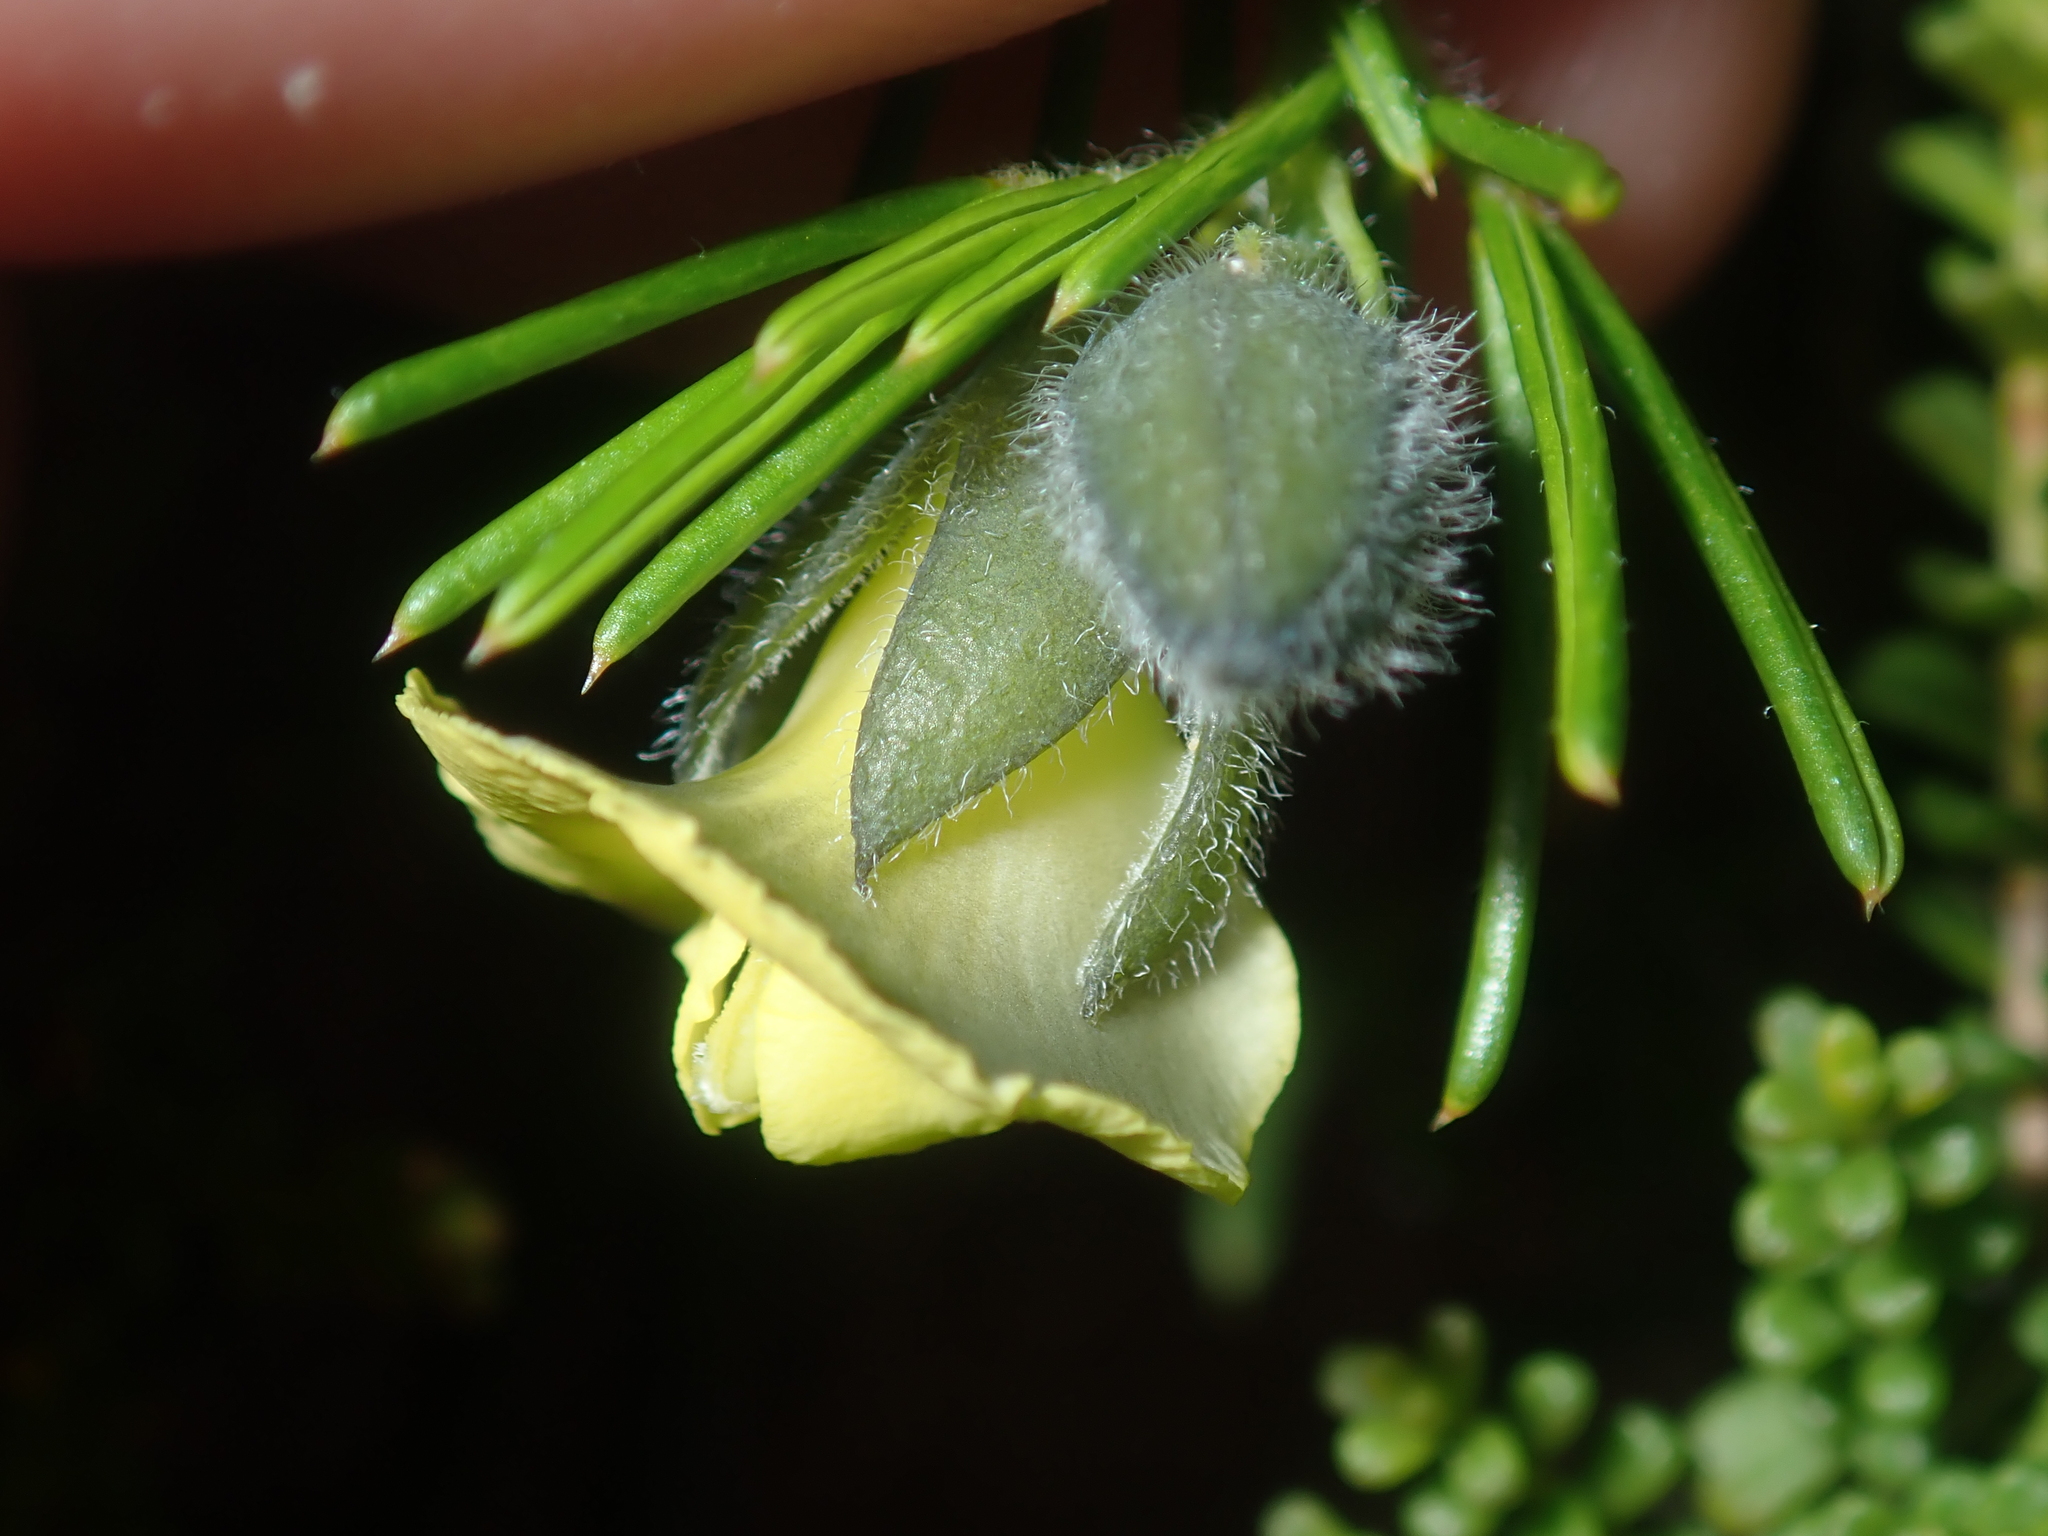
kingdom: Plantae
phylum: Tracheophyta
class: Magnoliopsida
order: Fabales
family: Fabaceae
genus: Gompholobium
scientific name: Gompholobium tomentosum
